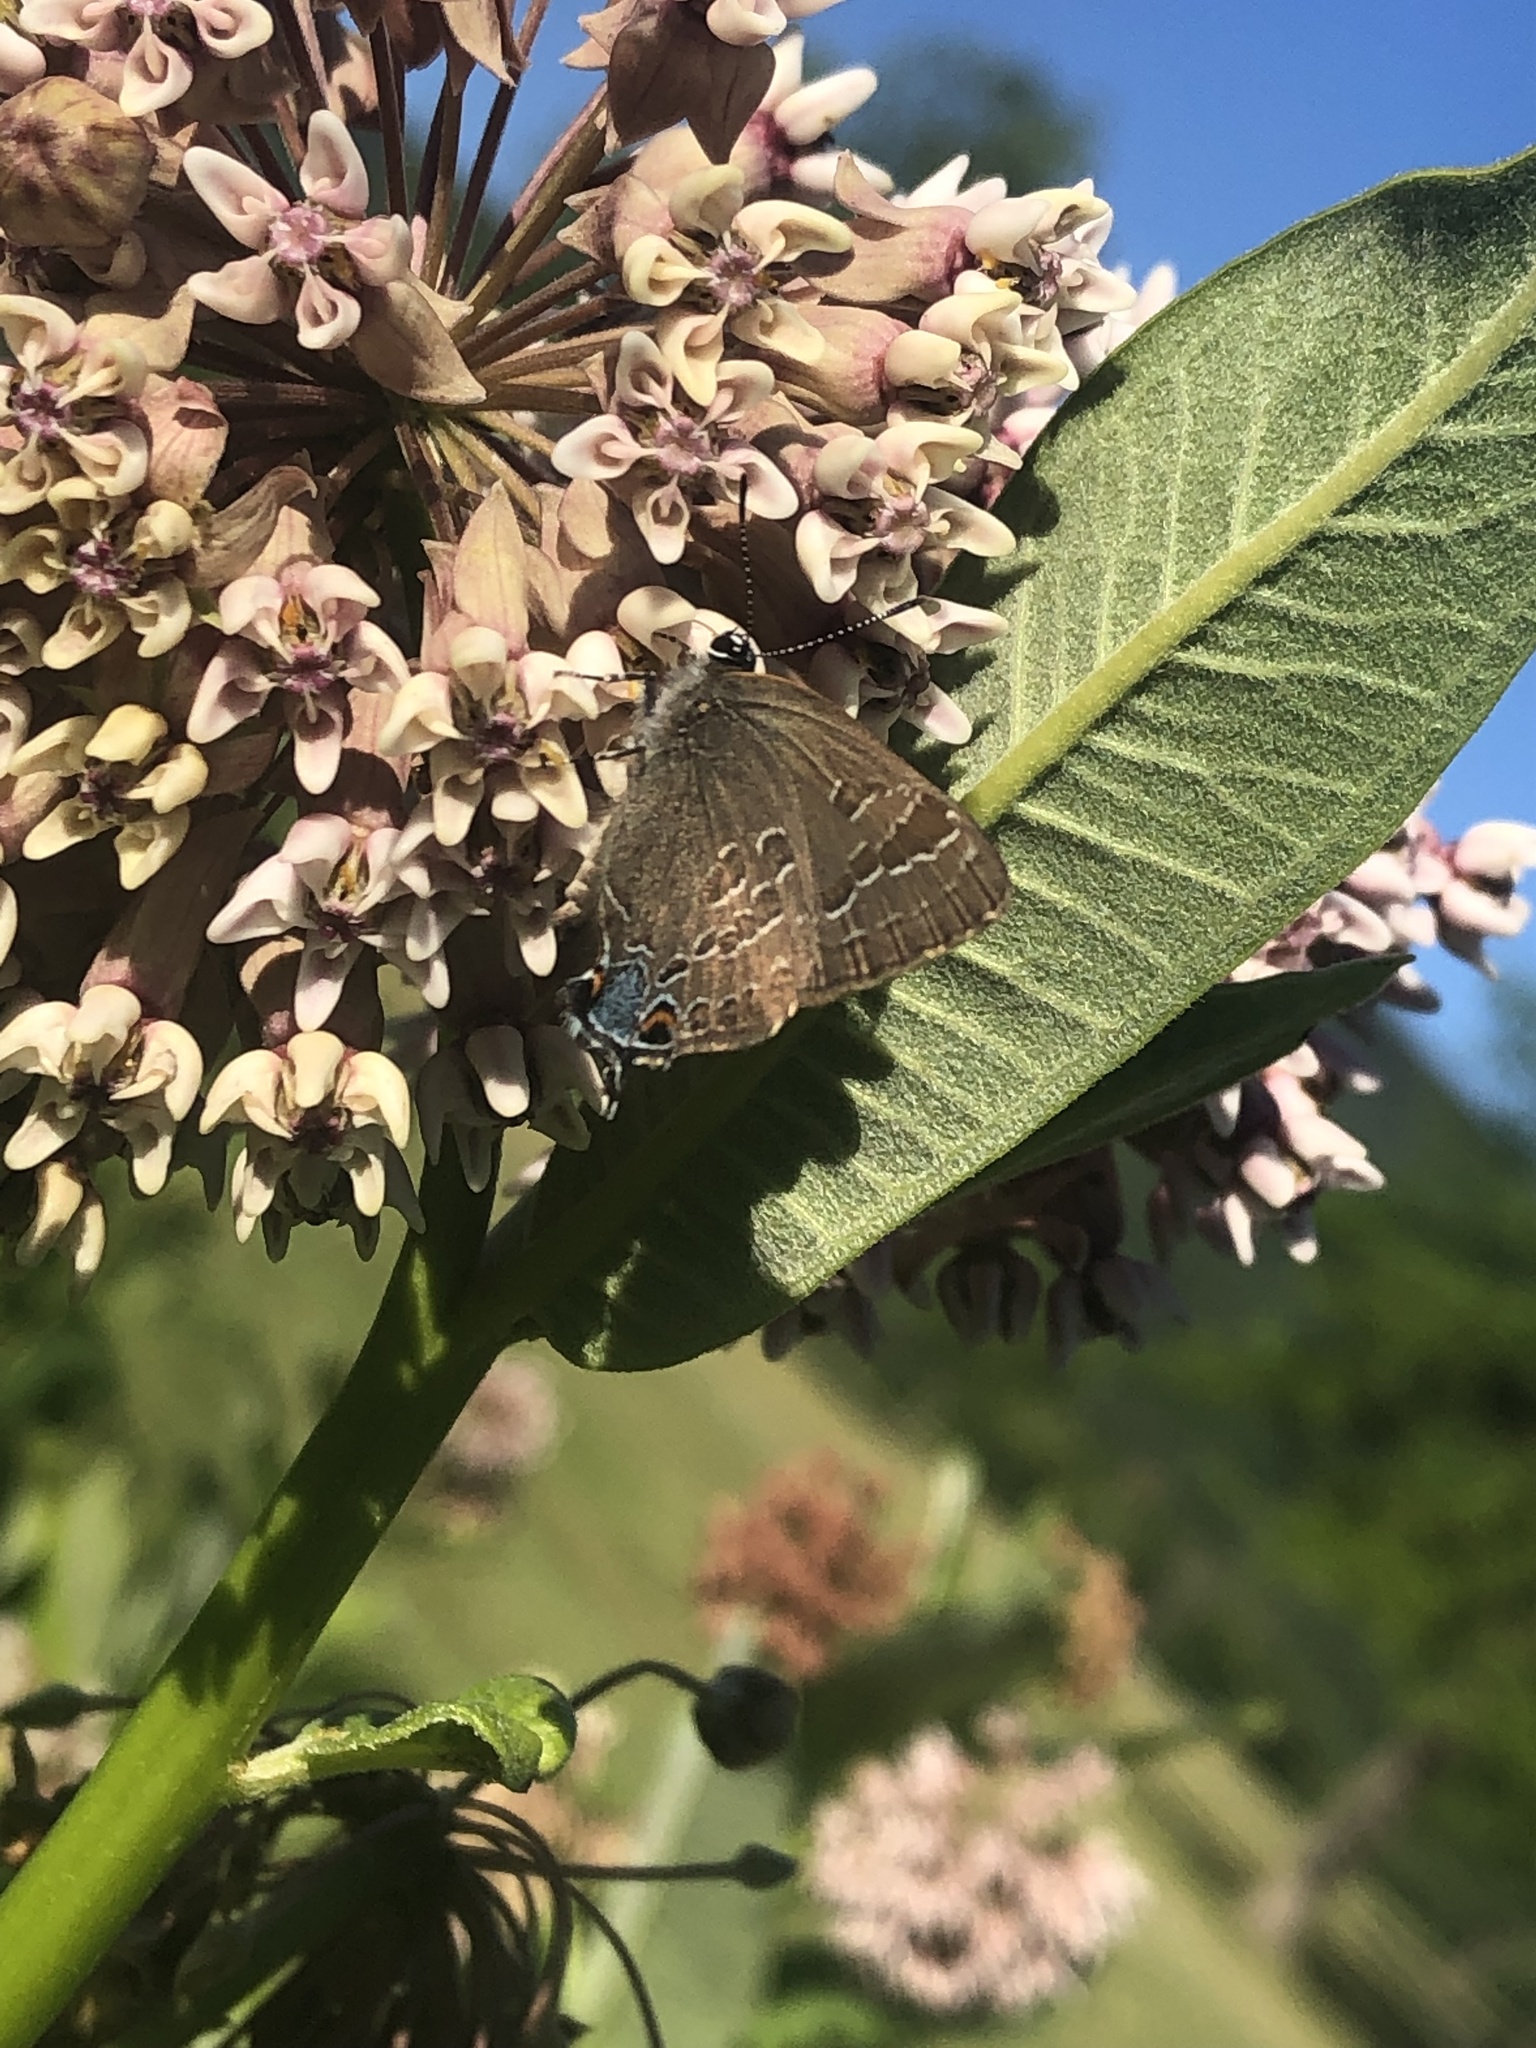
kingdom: Animalia
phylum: Arthropoda
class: Insecta
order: Lepidoptera
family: Lycaenidae
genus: Strymon
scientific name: Strymon caryaevorus
